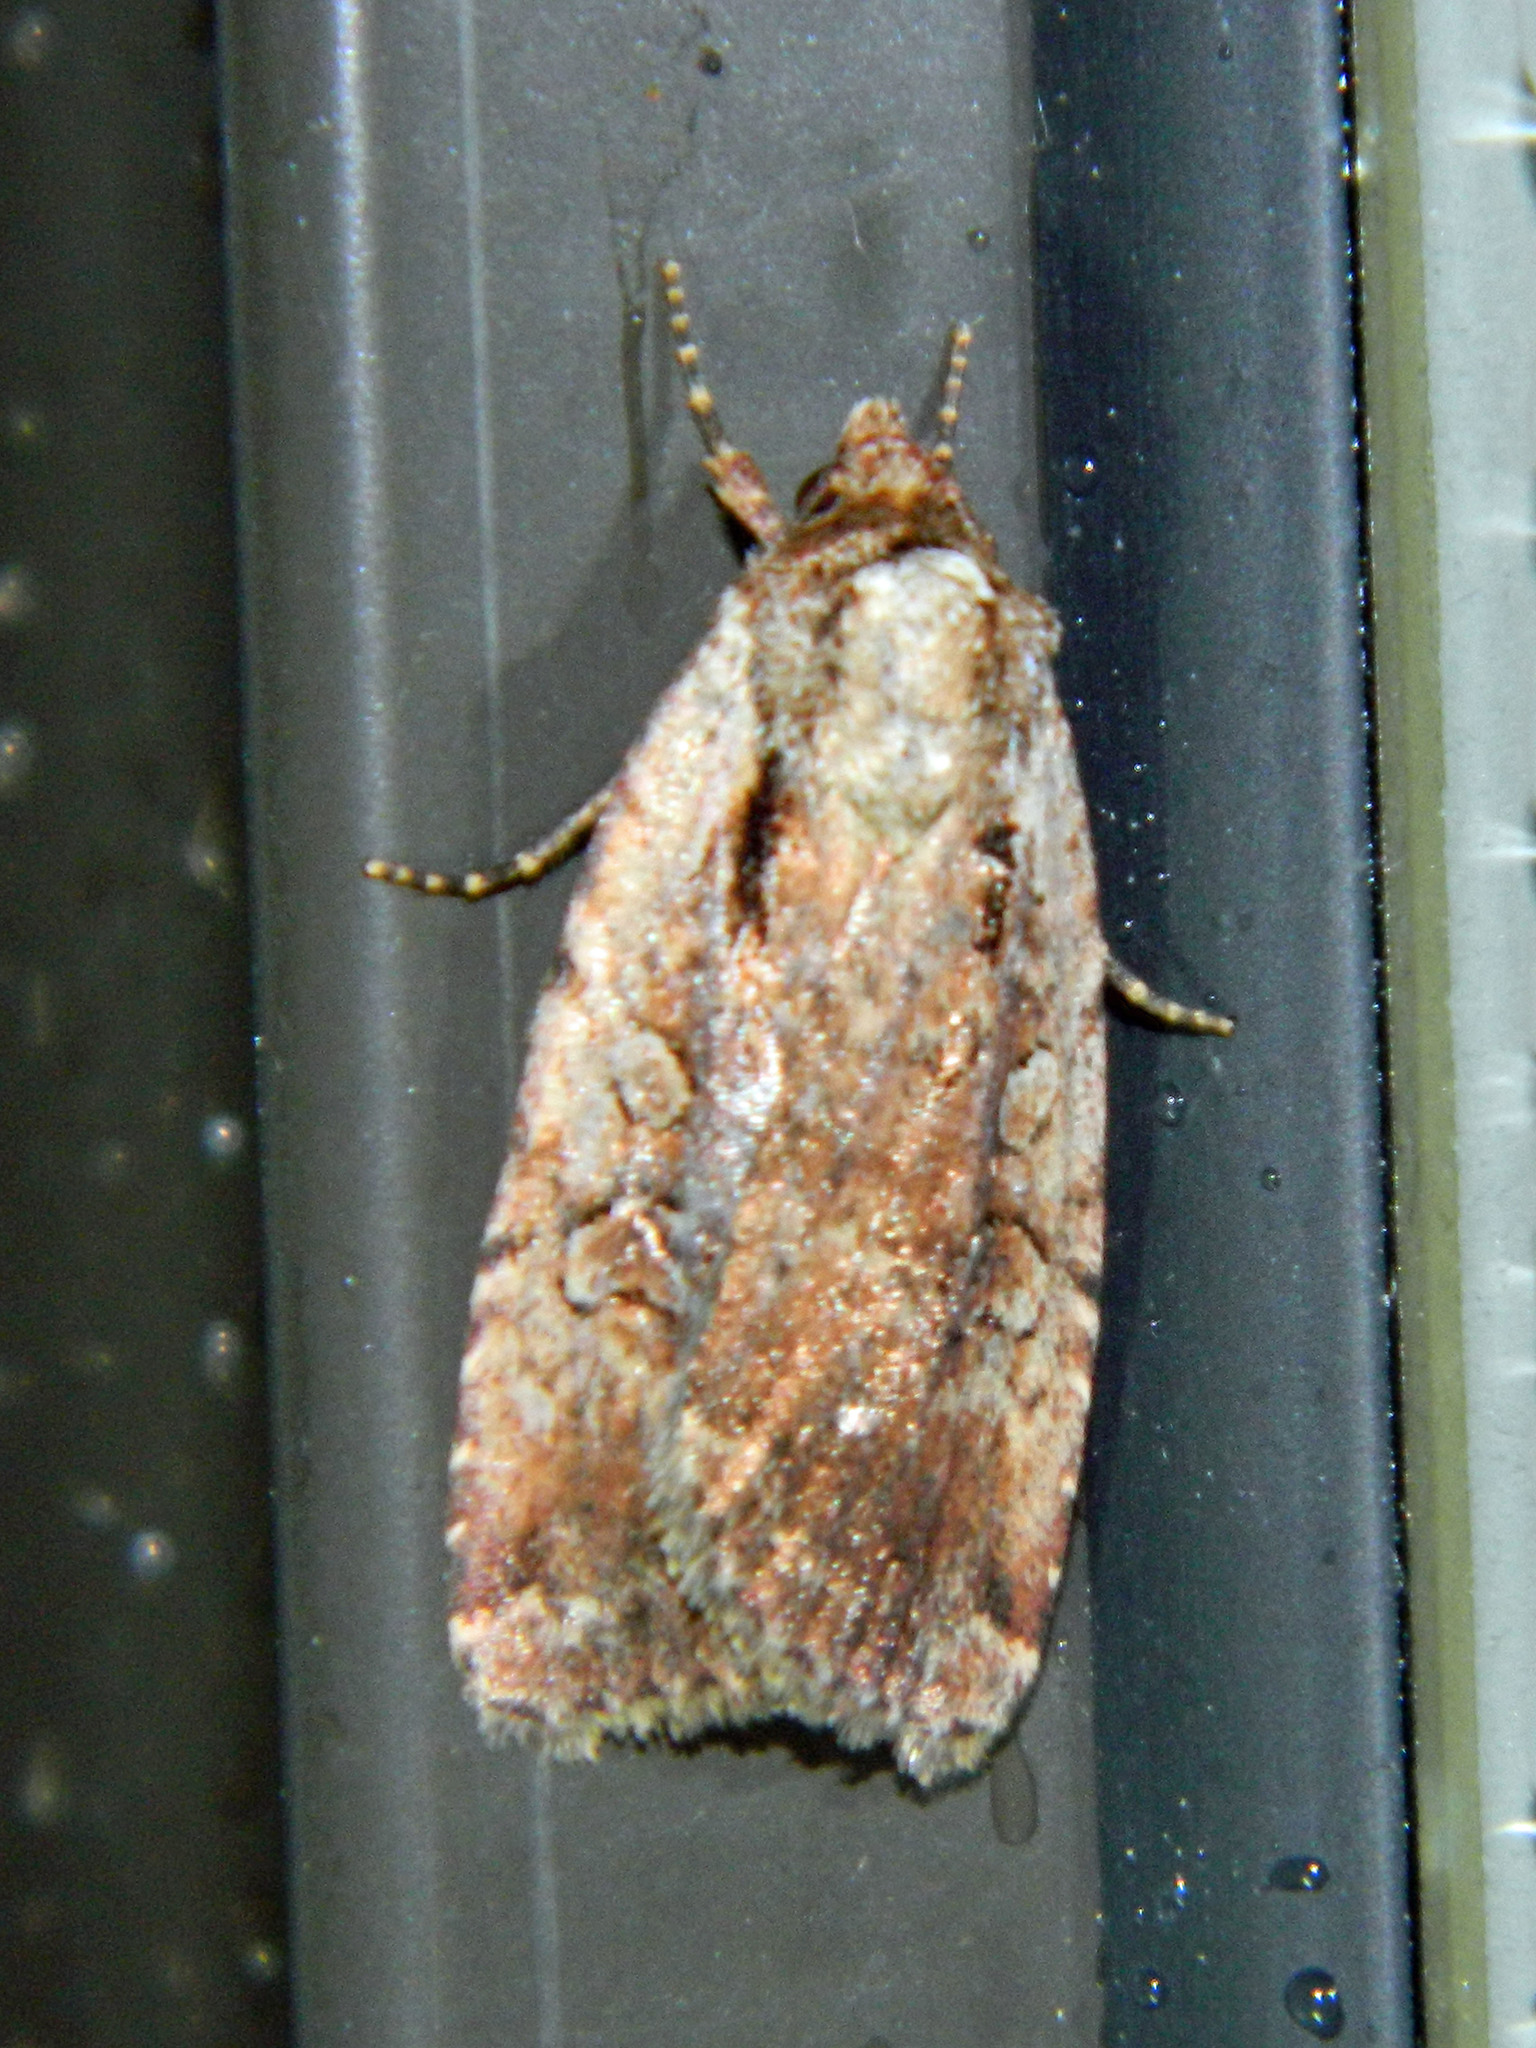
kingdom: Animalia
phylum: Arthropoda
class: Insecta
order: Lepidoptera
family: Noctuidae
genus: Eueretagrotis
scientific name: Eueretagrotis attentus
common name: Attentive dart
